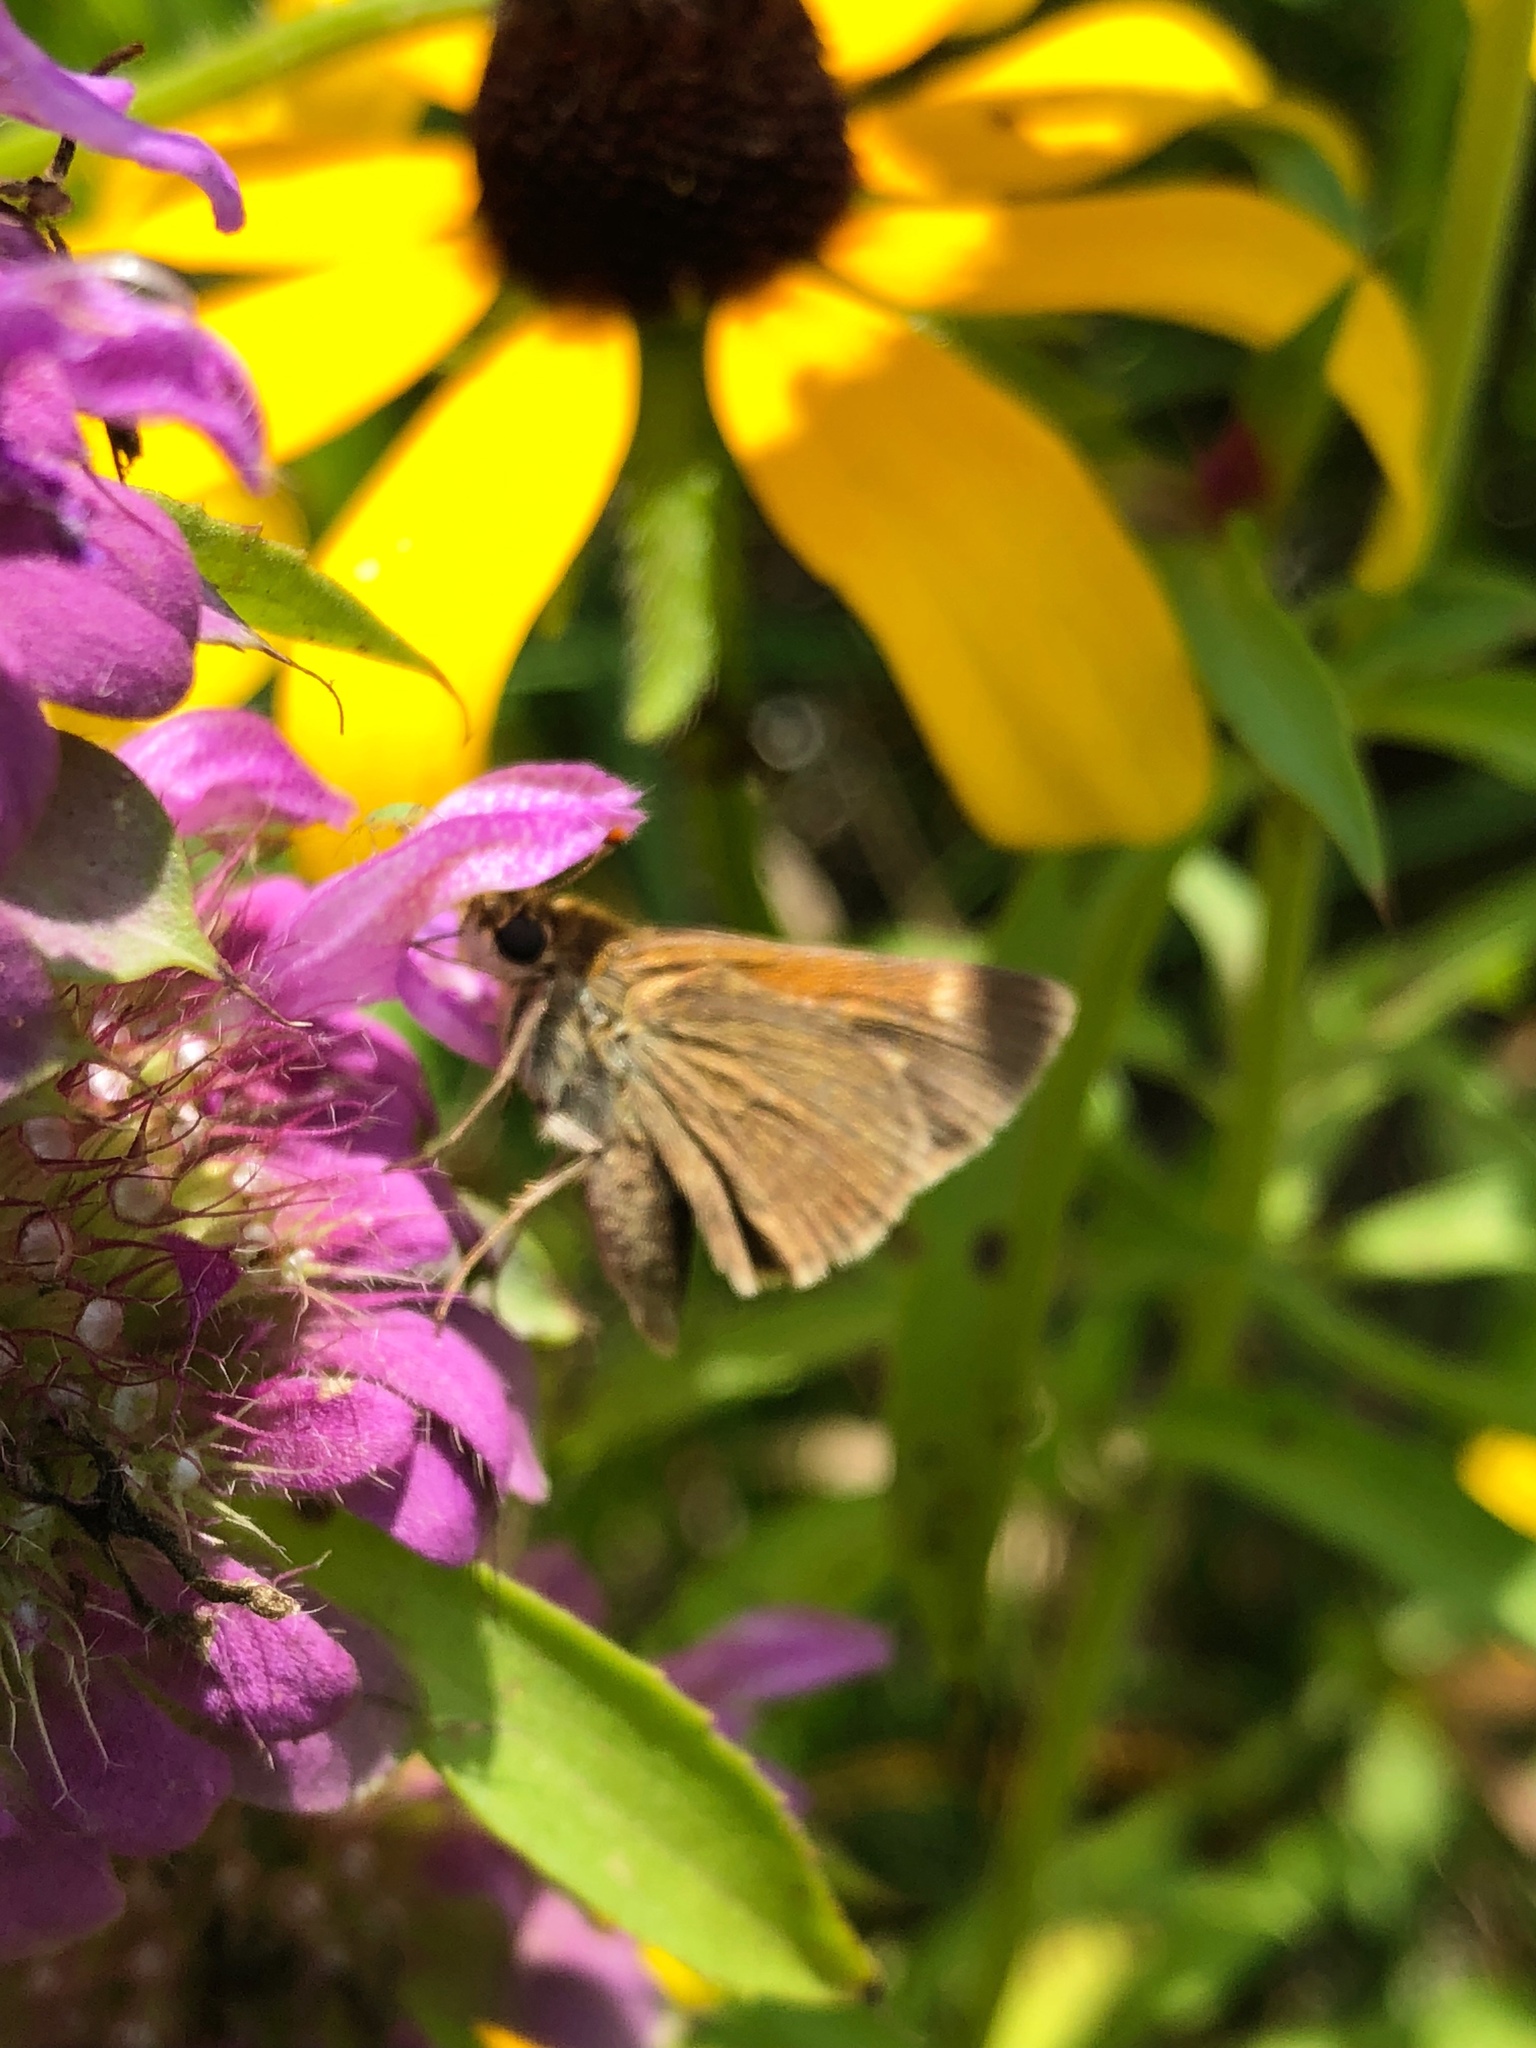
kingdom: Animalia
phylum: Arthropoda
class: Insecta
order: Lepidoptera
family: Hesperiidae
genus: Polites
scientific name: Polites themistocles
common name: Tawny-edged skipper
